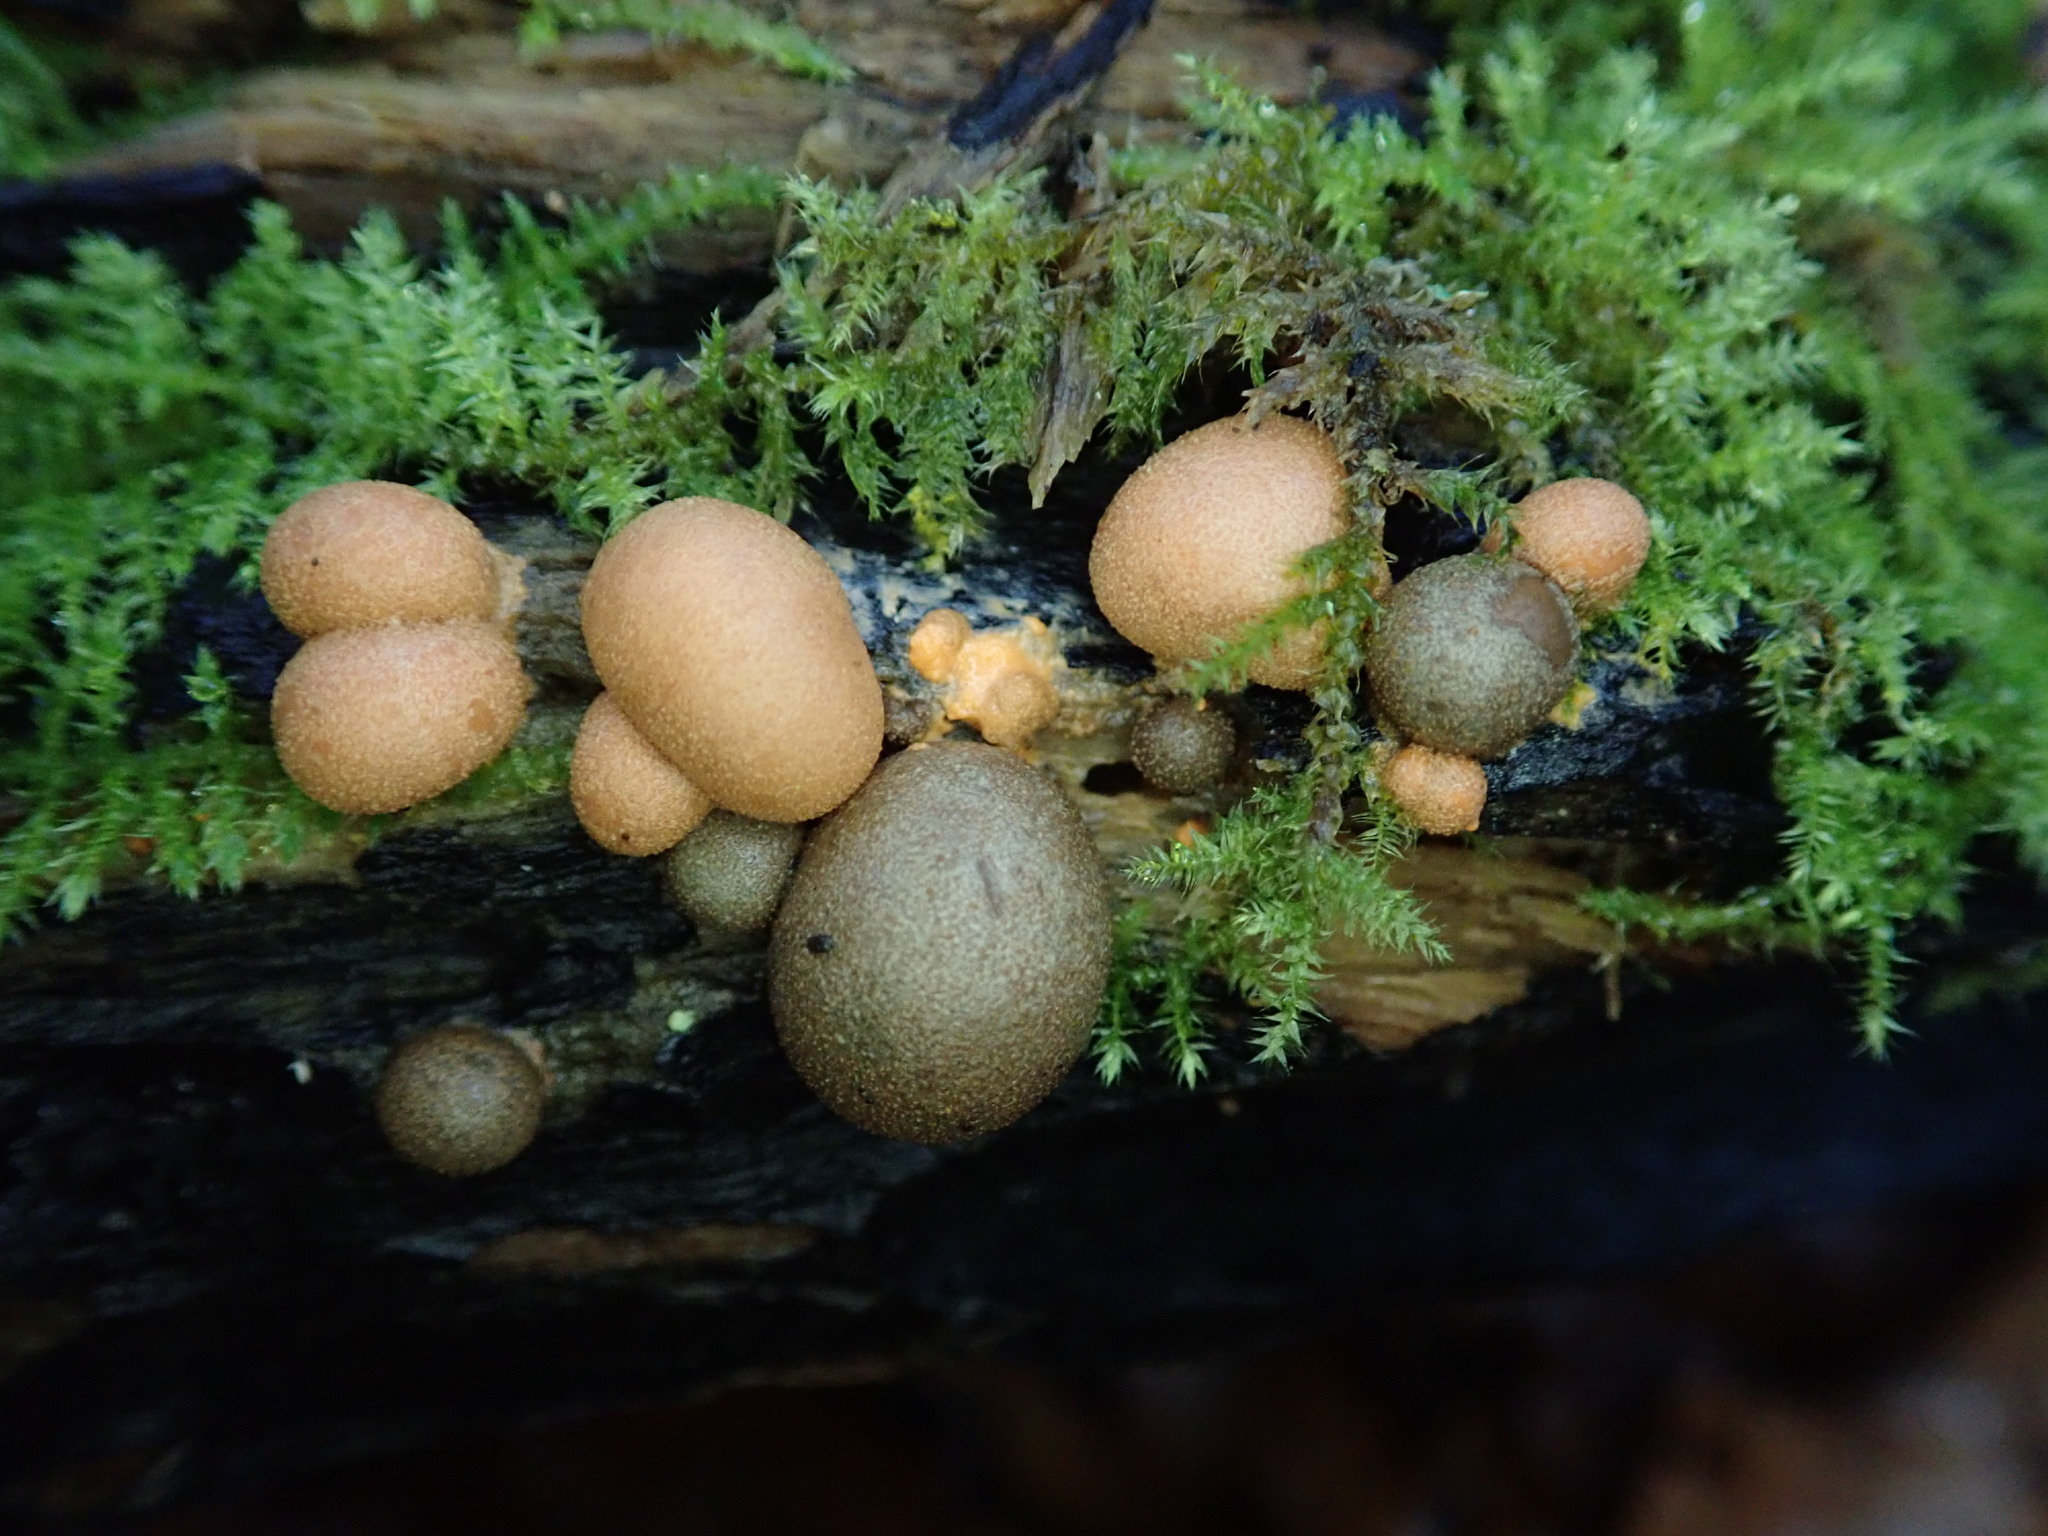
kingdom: Protozoa
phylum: Mycetozoa
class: Myxomycetes
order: Cribrariales
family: Tubiferaceae
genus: Lycogala
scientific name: Lycogala epidendrum
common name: Wolf's milk
